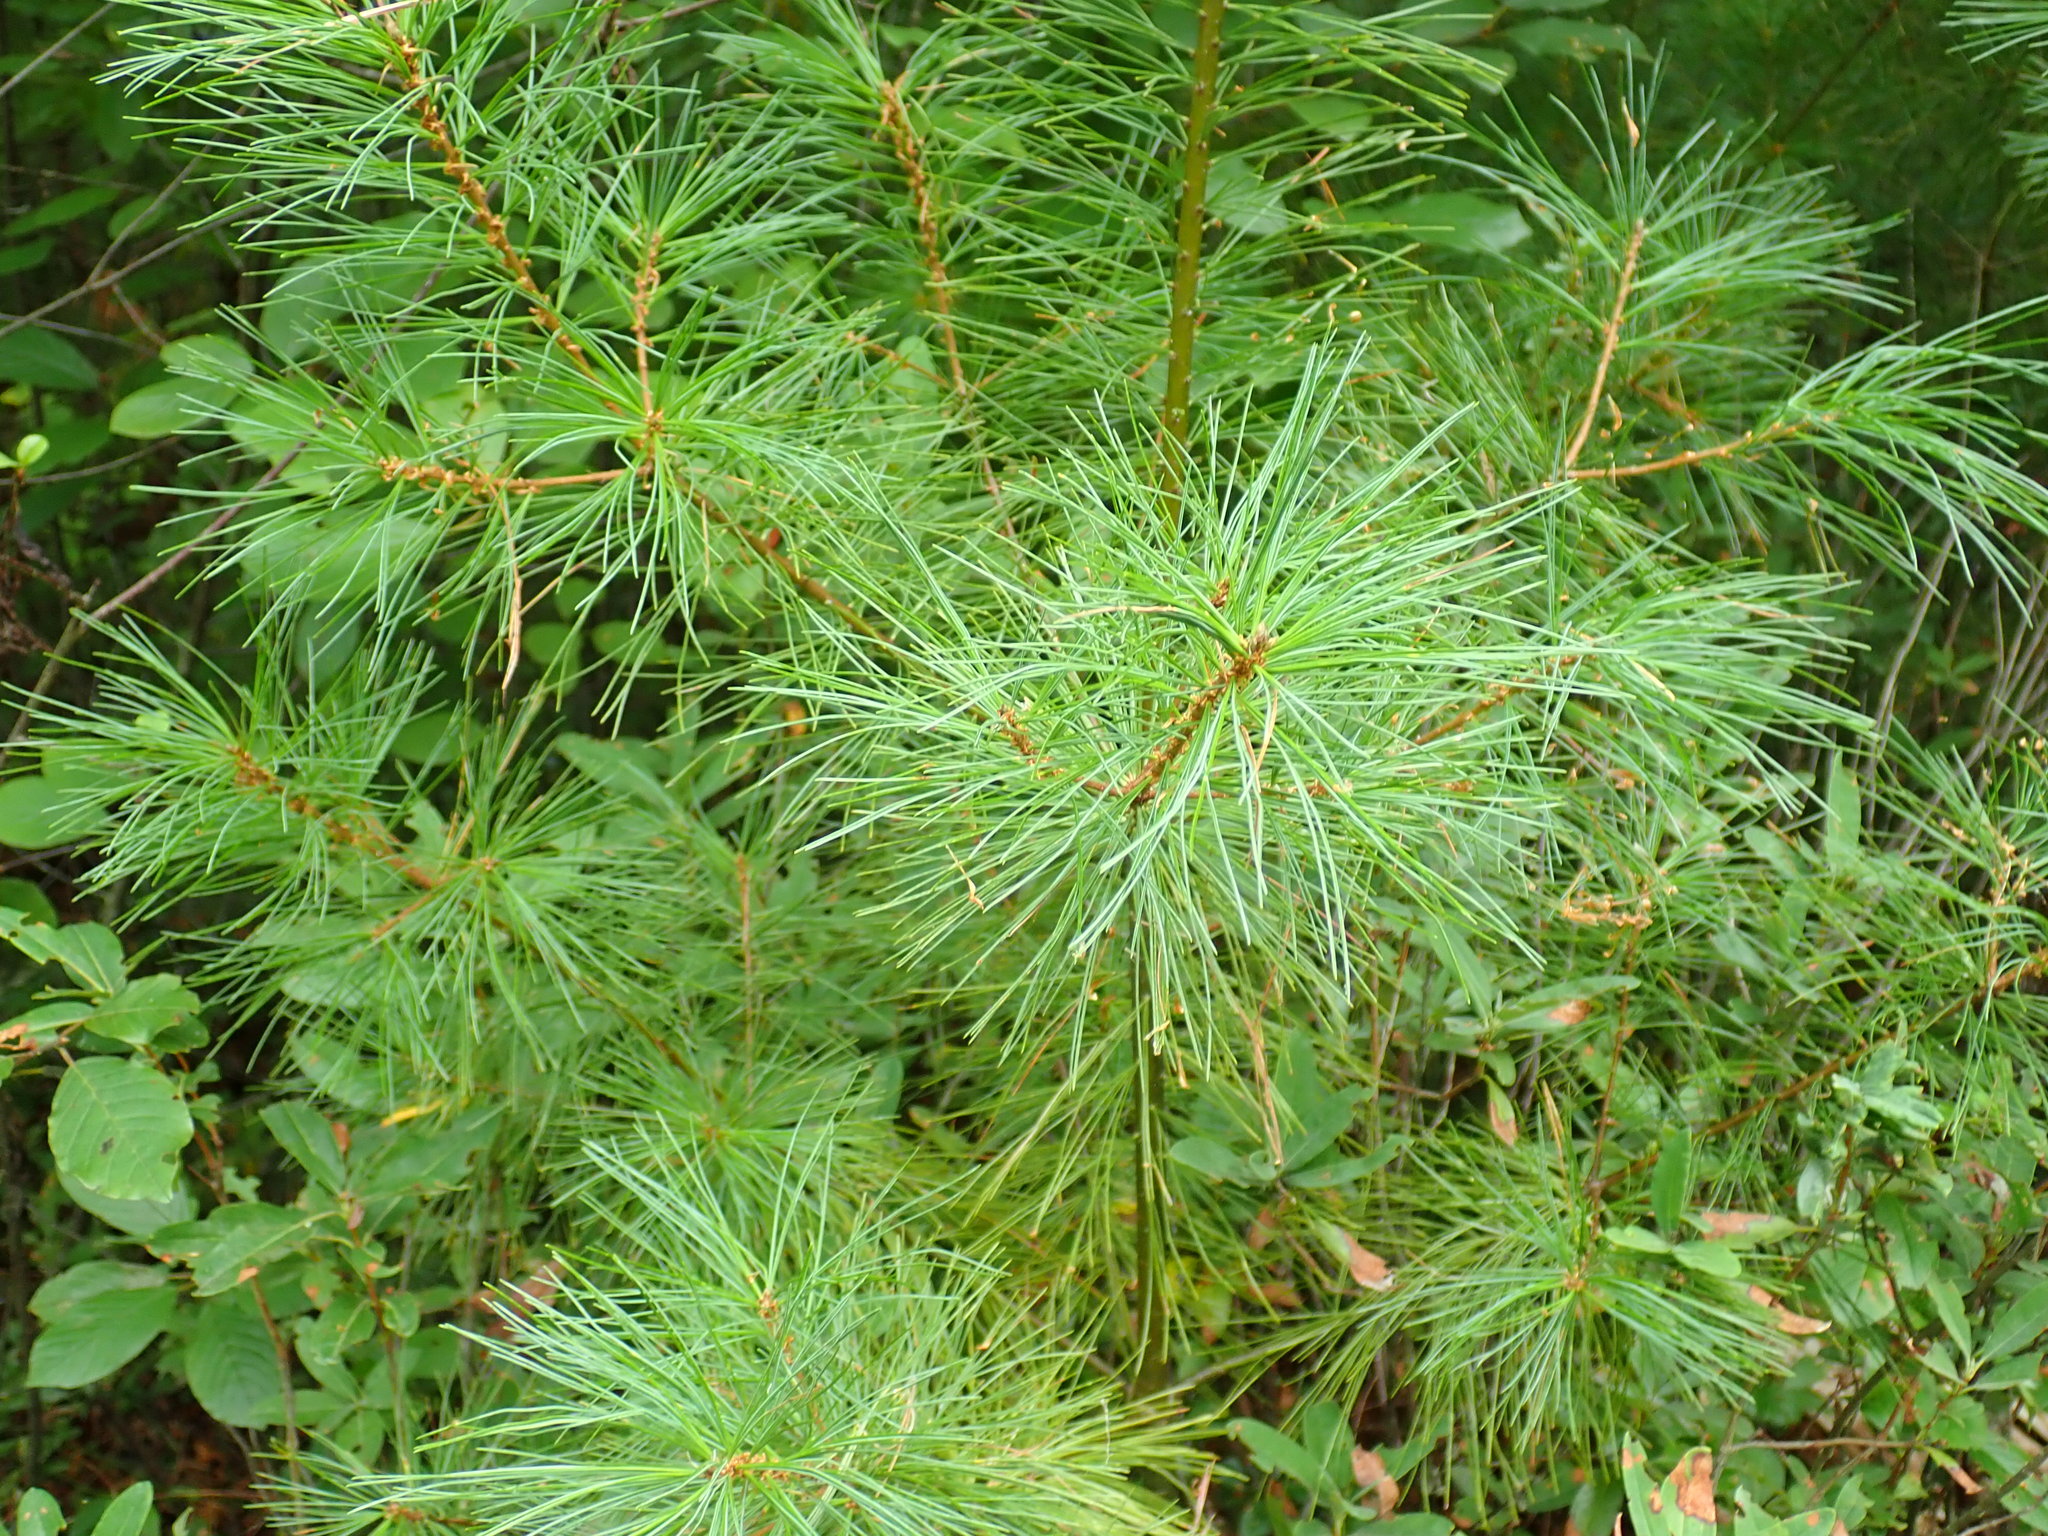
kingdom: Plantae
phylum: Tracheophyta
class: Pinopsida
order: Pinales
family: Pinaceae
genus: Pinus
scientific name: Pinus strobus
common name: Weymouth pine
